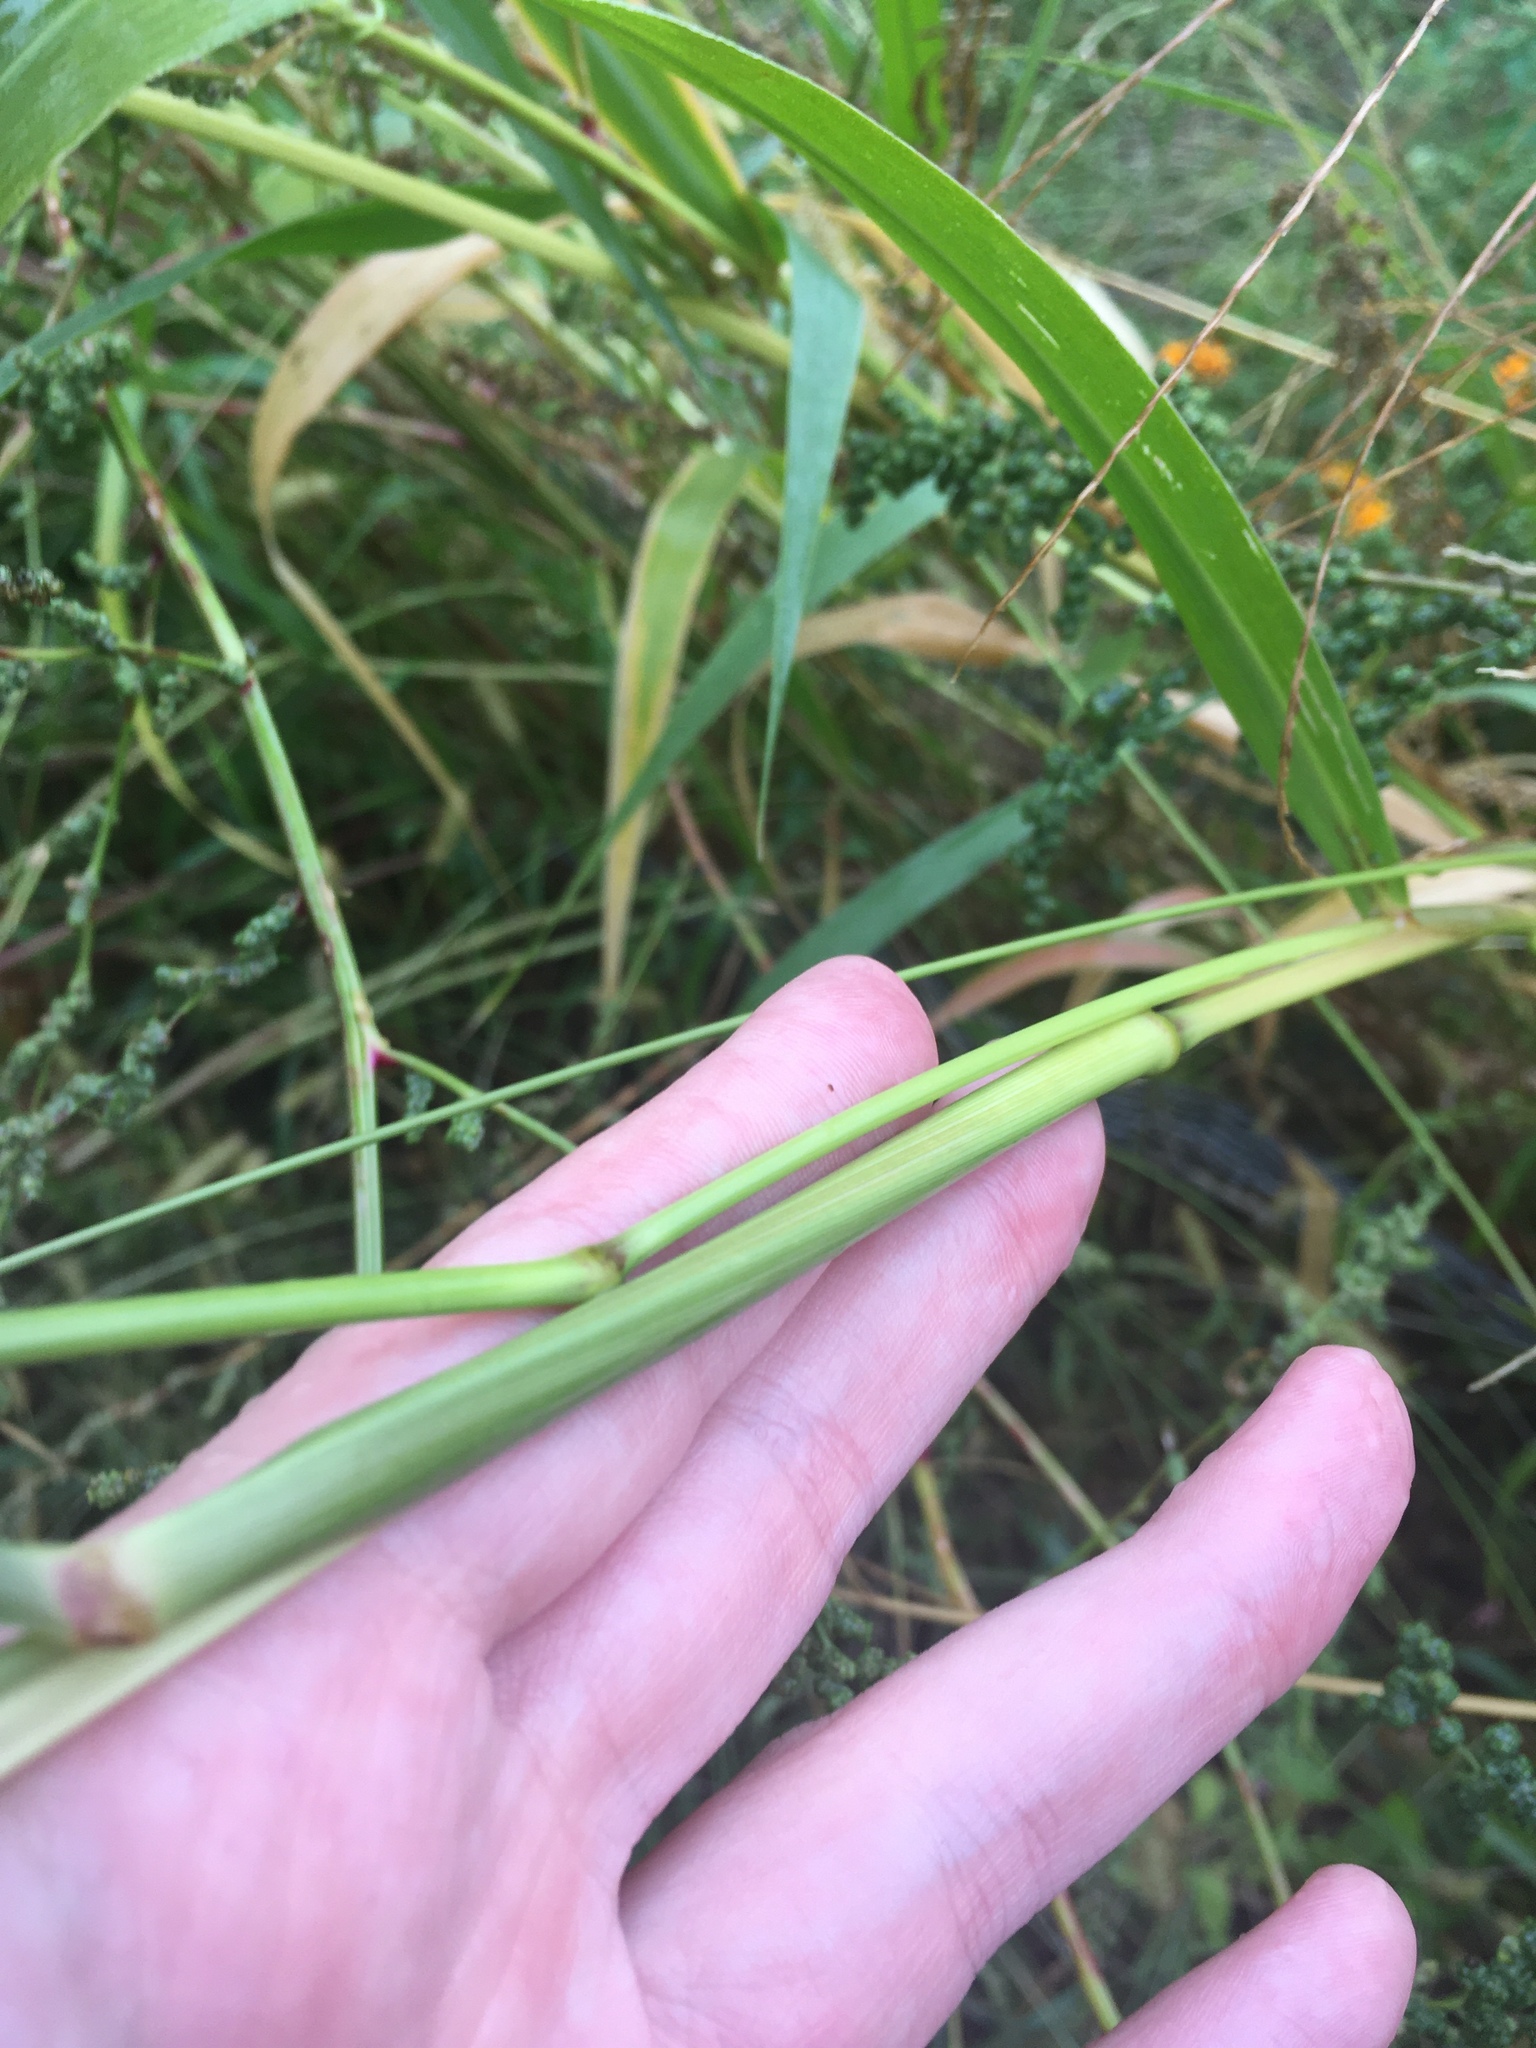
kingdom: Plantae
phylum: Tracheophyta
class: Liliopsida
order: Poales
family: Poaceae
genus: Setaria
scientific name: Setaria faberi
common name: Nodding bristle-grass
